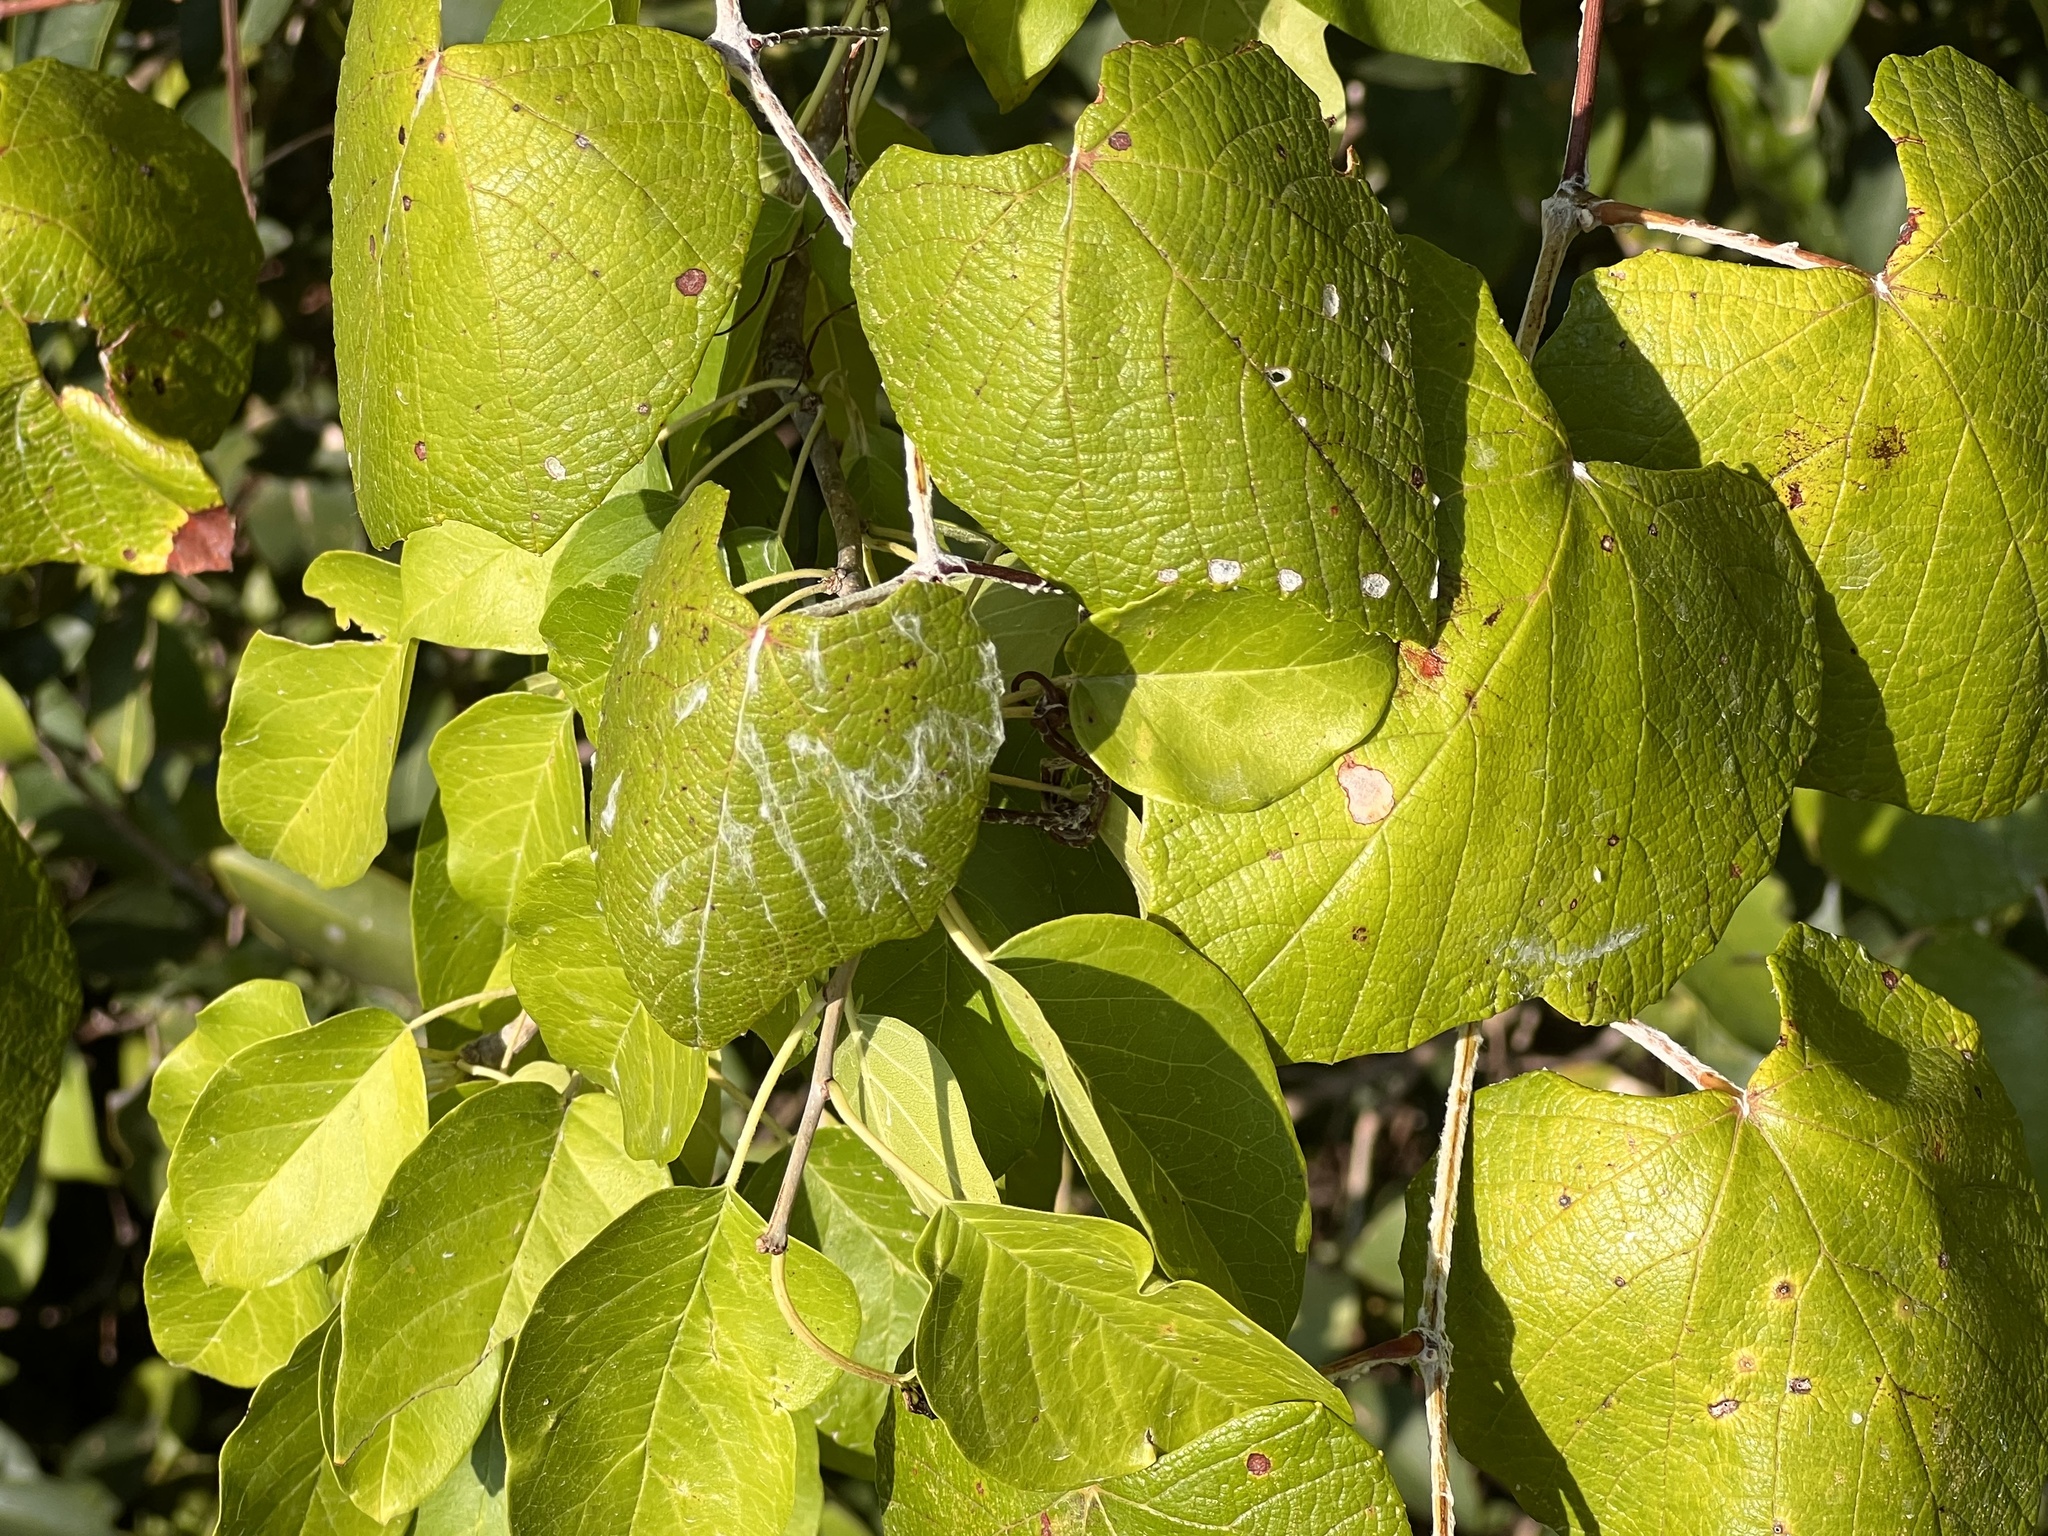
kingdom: Plantae
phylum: Tracheophyta
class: Magnoliopsida
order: Vitales
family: Vitaceae
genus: Vitis
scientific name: Vitis mustangensis
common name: Mustang grape
